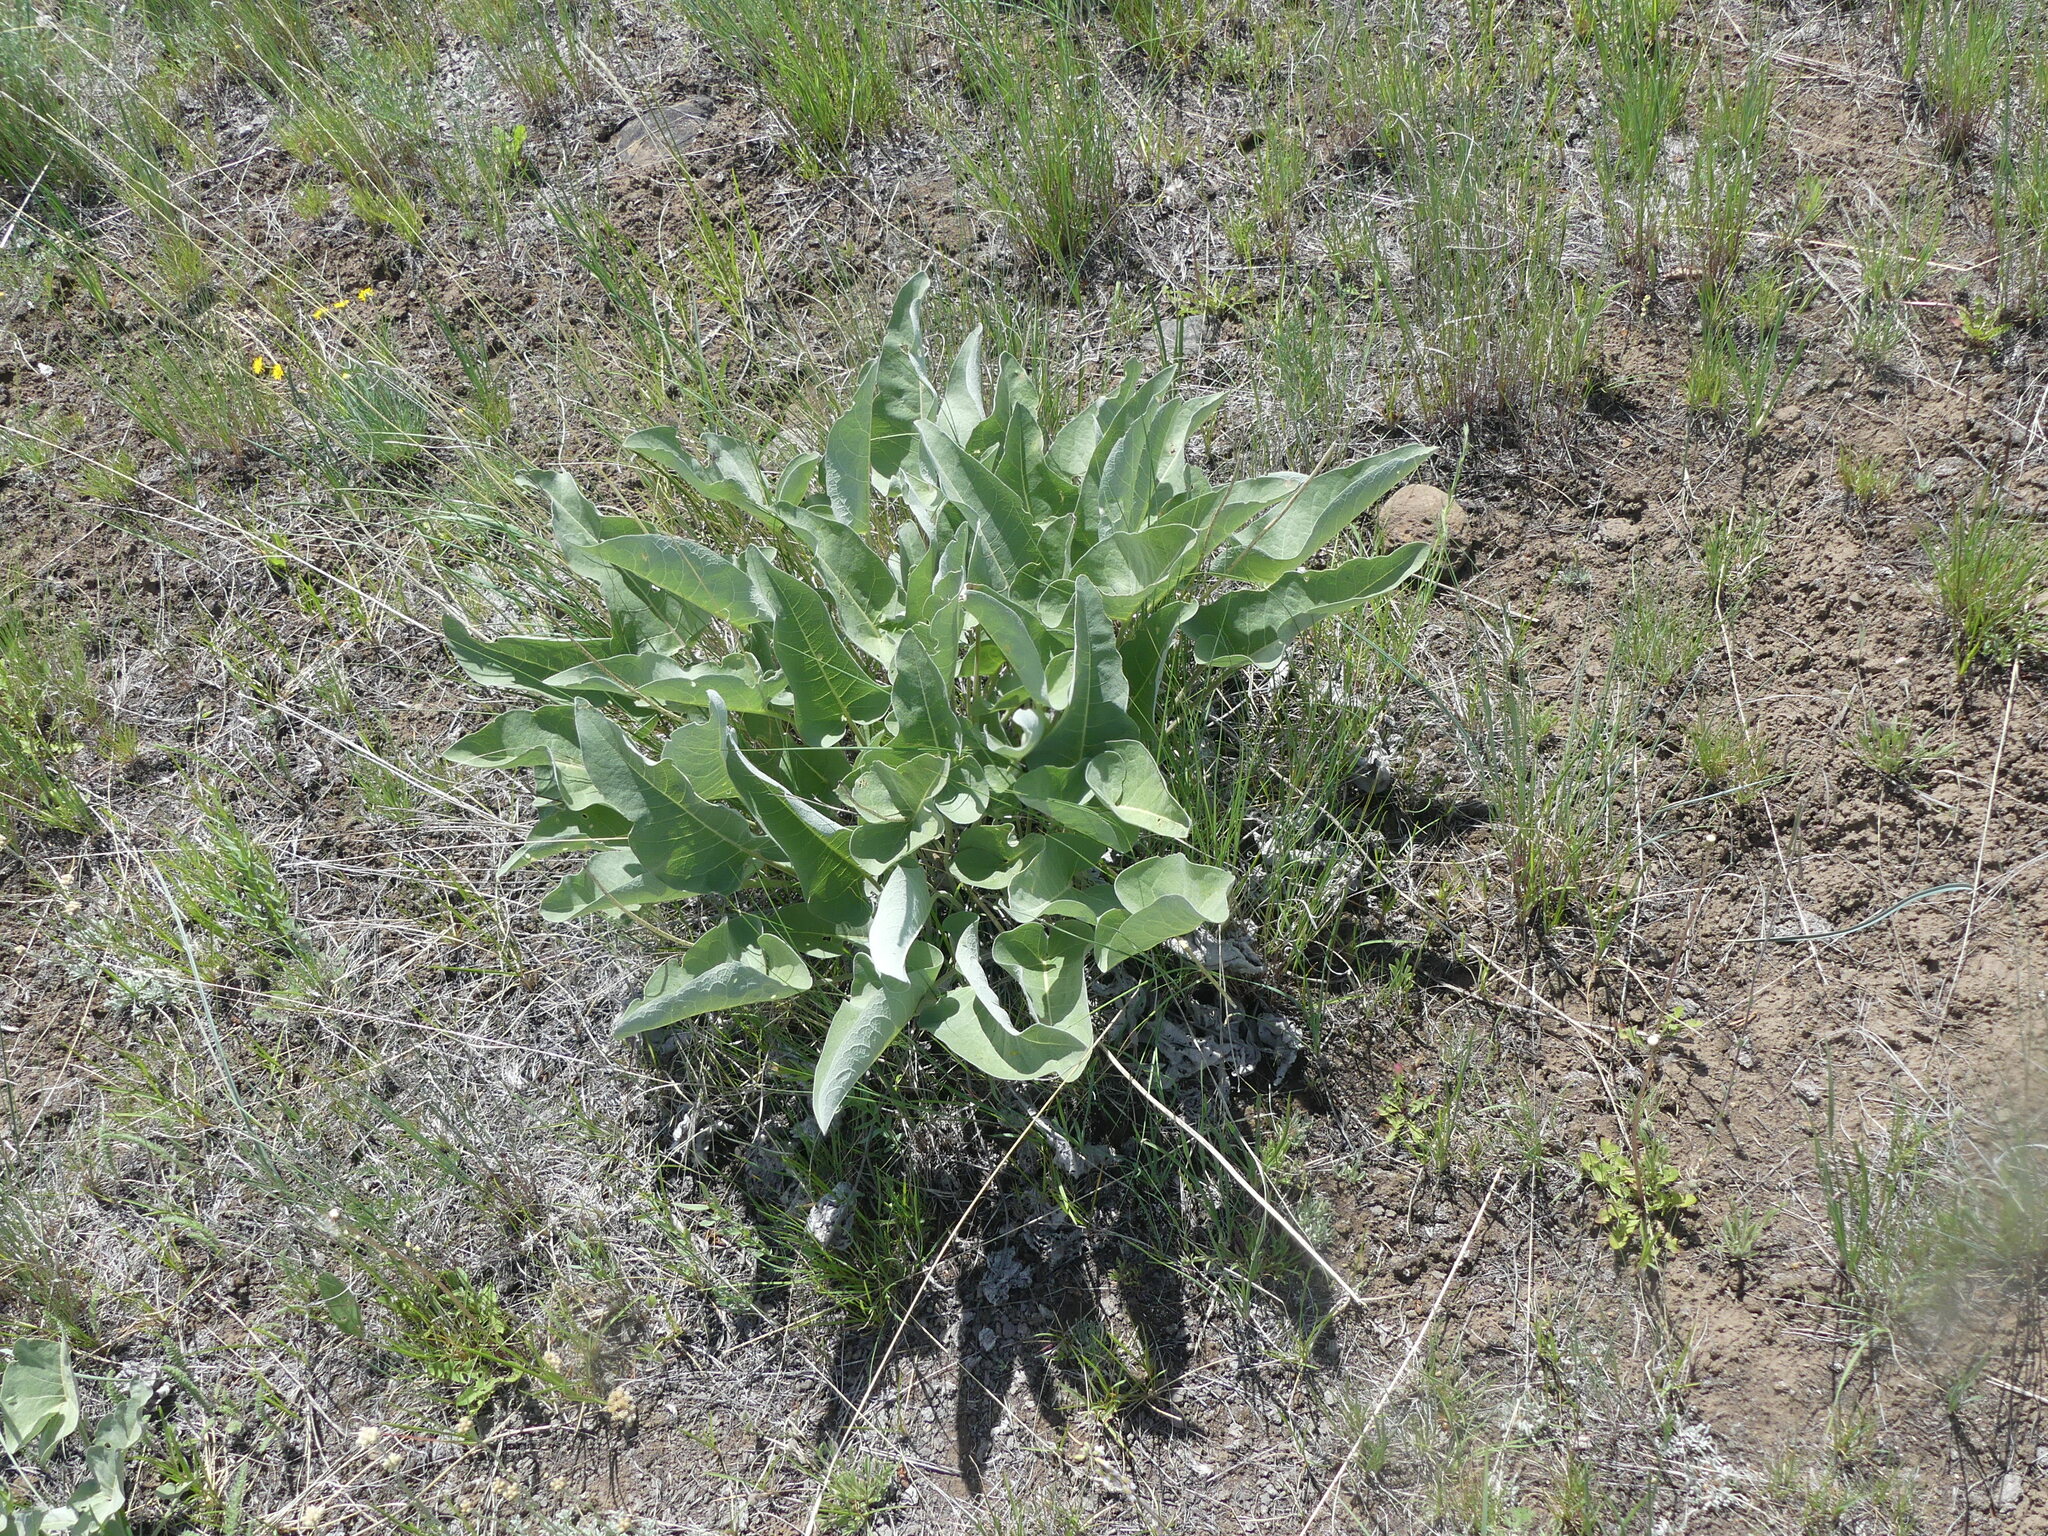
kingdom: Plantae
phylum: Tracheophyta
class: Magnoliopsida
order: Asterales
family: Asteraceae
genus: Wyethia
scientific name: Wyethia sagittata
